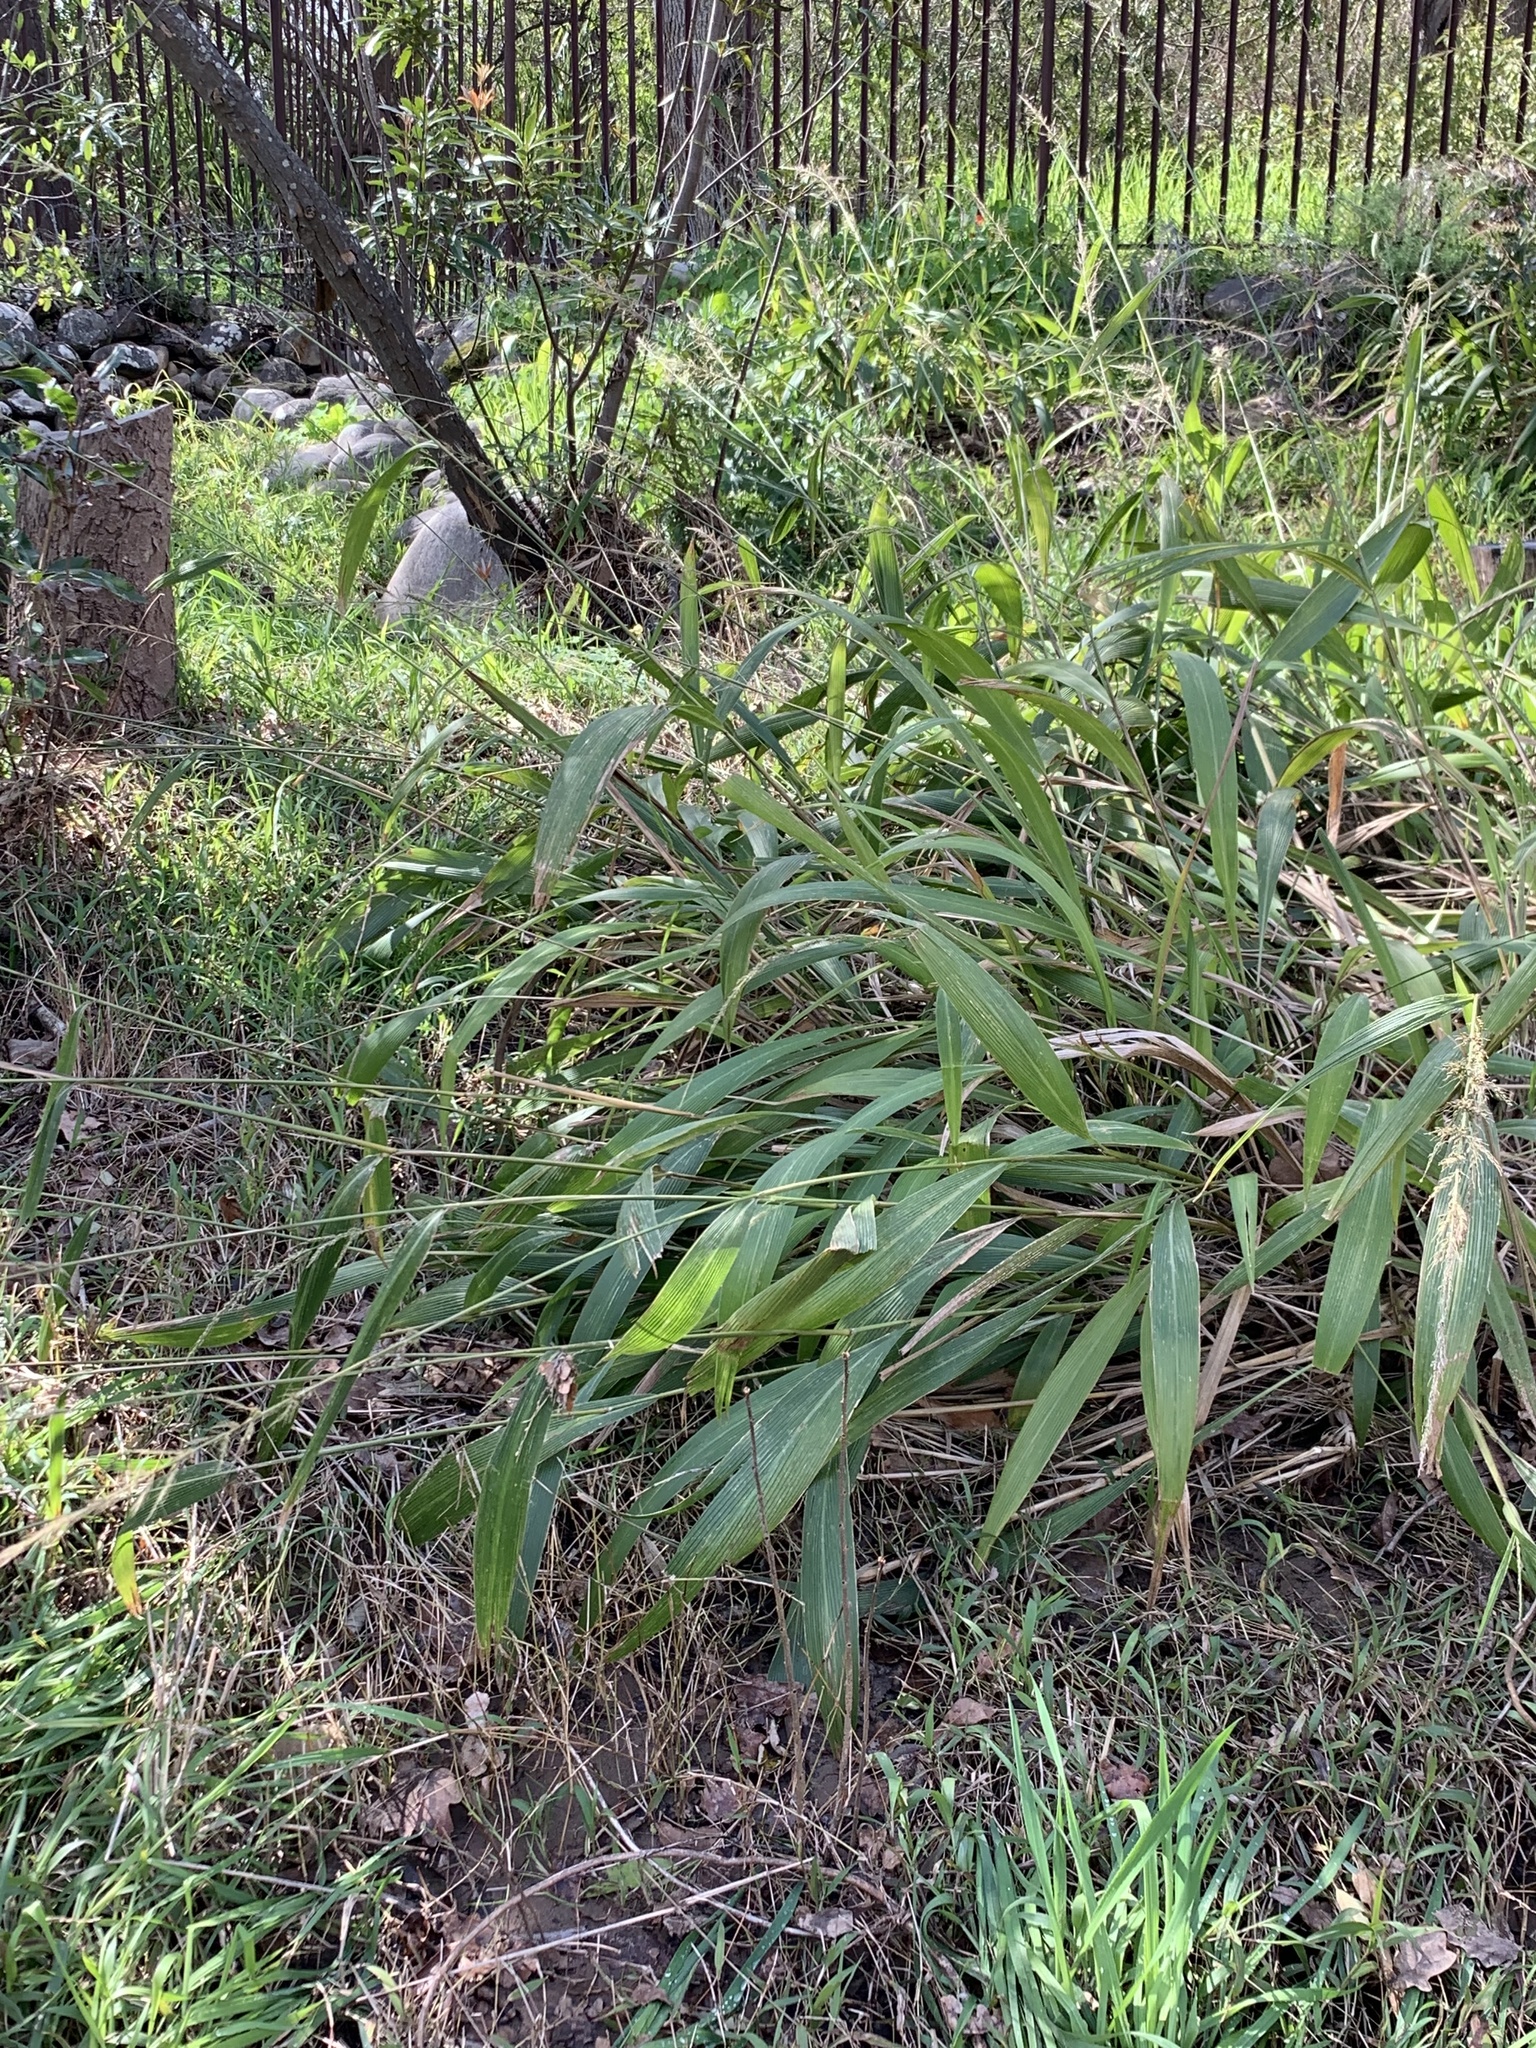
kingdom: Plantae
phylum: Tracheophyta
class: Liliopsida
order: Poales
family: Poaceae
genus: Setaria
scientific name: Setaria megaphylla
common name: Bigleaf bristlegrass
